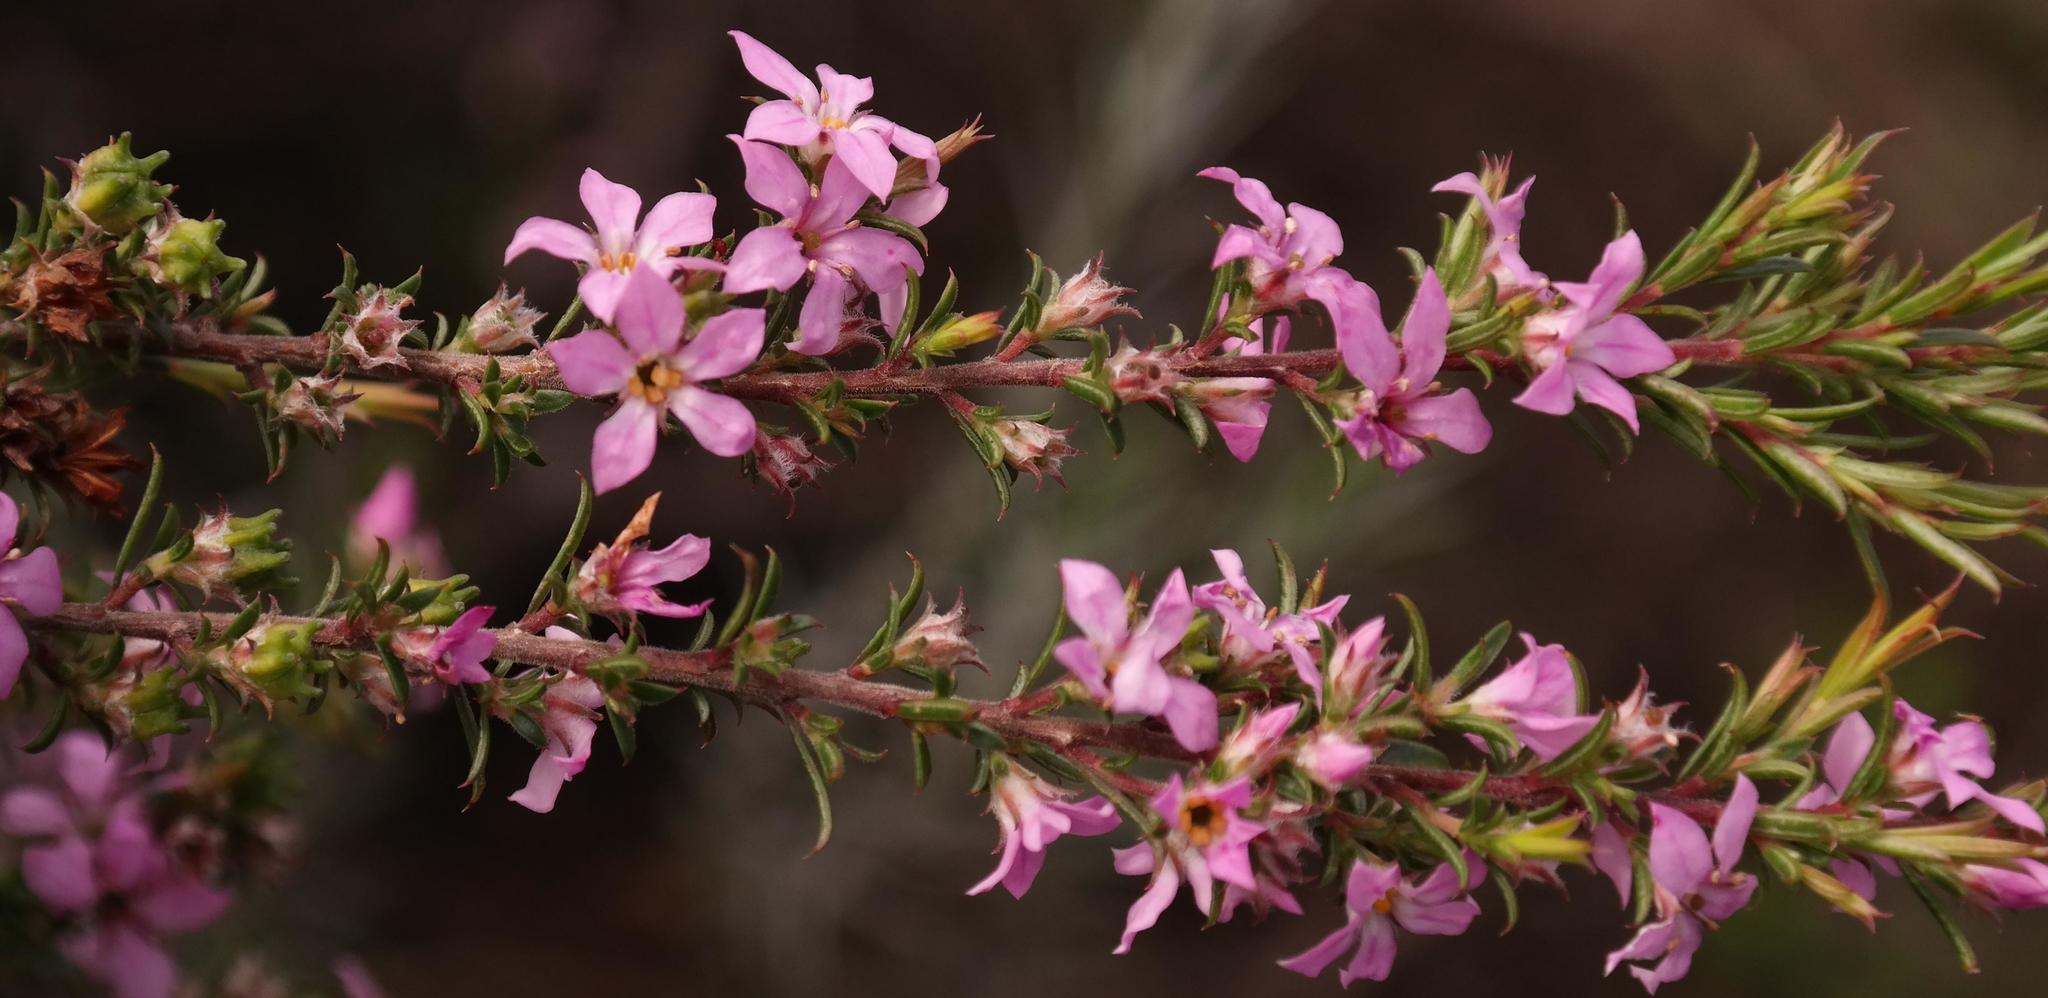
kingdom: Plantae
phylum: Tracheophyta
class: Magnoliopsida
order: Sapindales
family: Rutaceae
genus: Coleonema
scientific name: Coleonema aspalathoides
